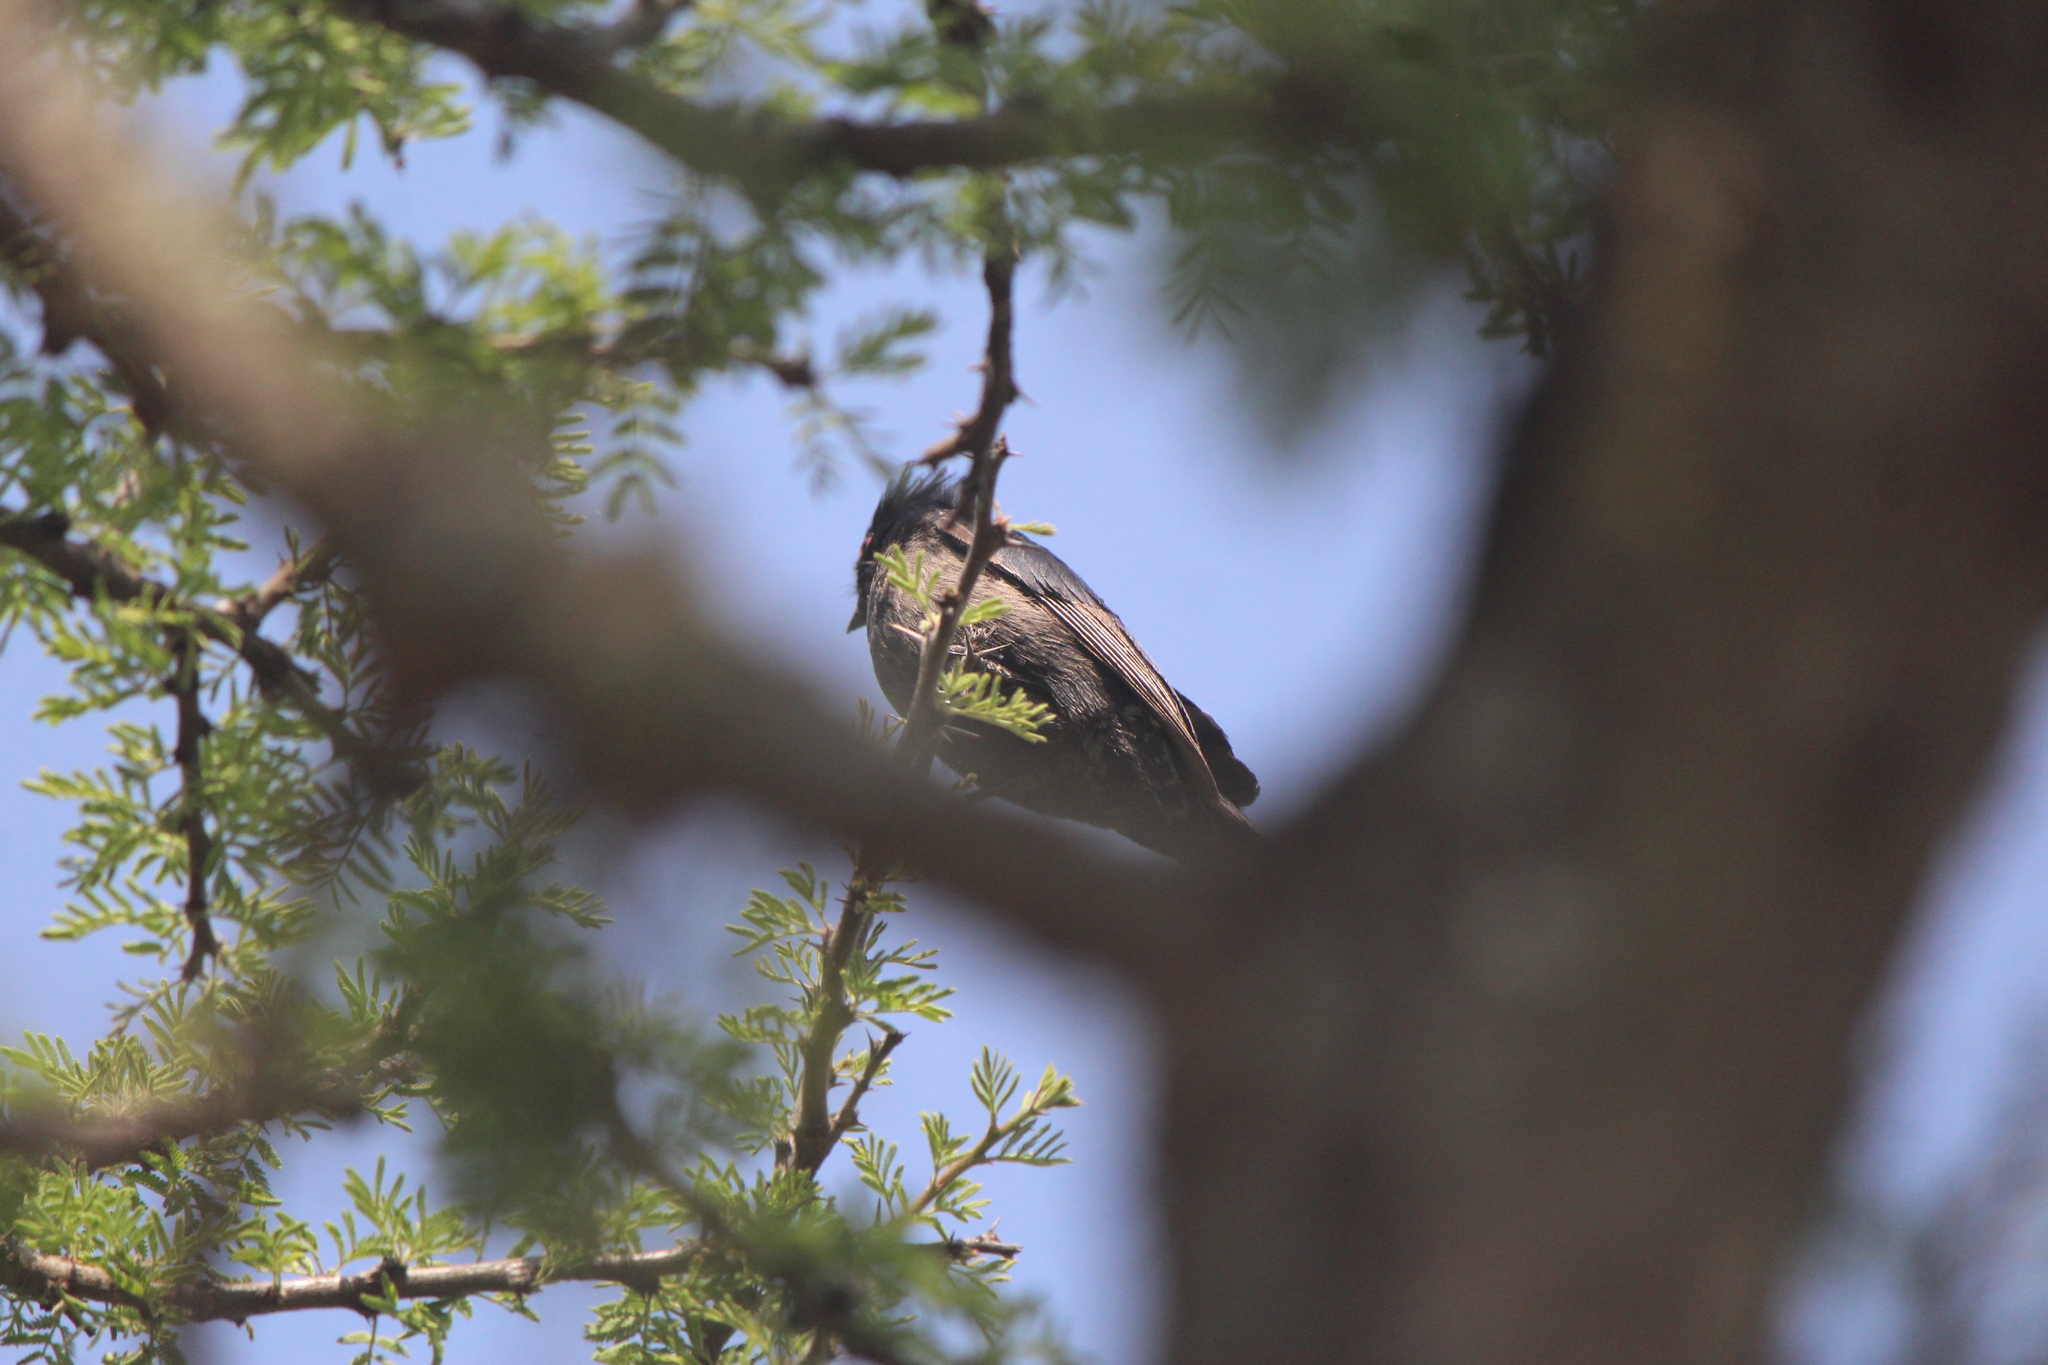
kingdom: Animalia
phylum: Chordata
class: Aves
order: Passeriformes
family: Ptilogonatidae
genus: Phainopepla
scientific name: Phainopepla nitens
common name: Phainopepla
